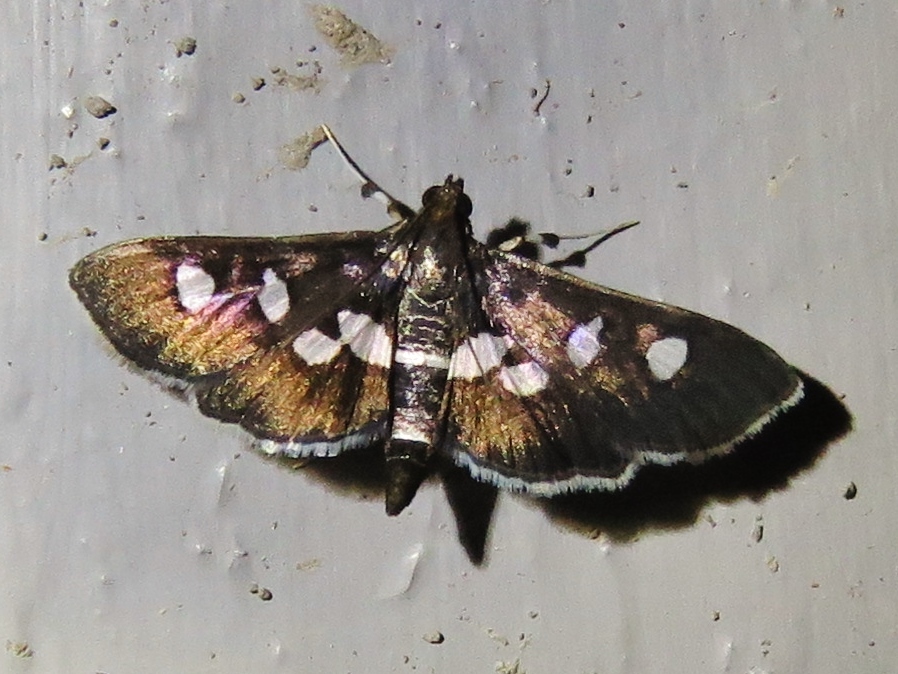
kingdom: Animalia
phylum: Arthropoda
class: Insecta
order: Lepidoptera
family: Crambidae
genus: Desmia
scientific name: Desmia
